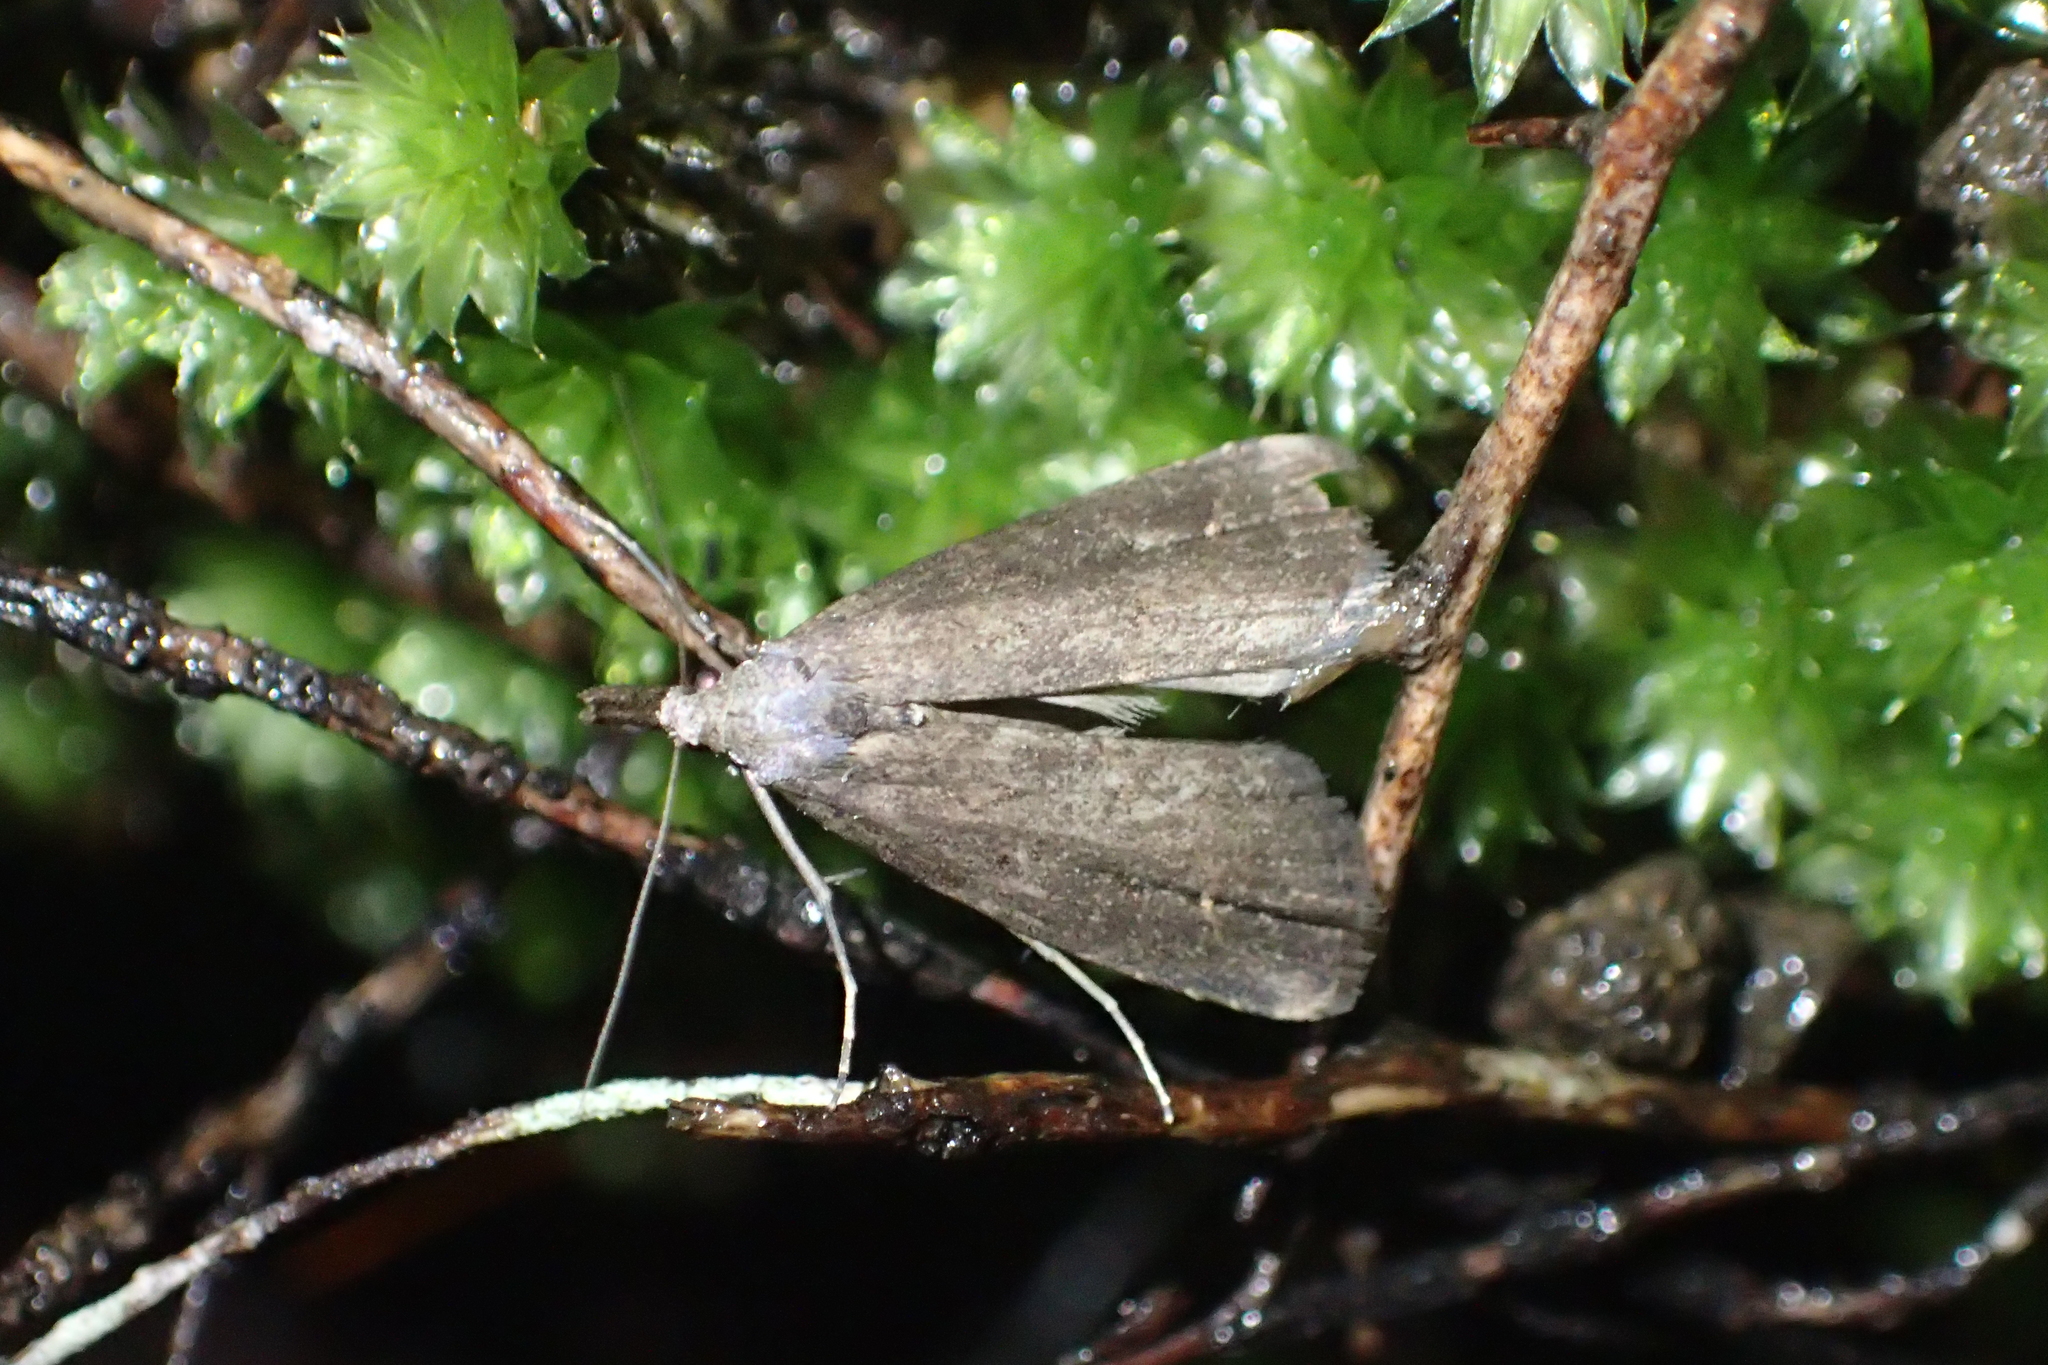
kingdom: Animalia
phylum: Arthropoda
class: Insecta
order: Lepidoptera
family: Erebidae
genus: Schrankia
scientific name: Schrankia costaestrigalis
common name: Pinion-streaked snout
